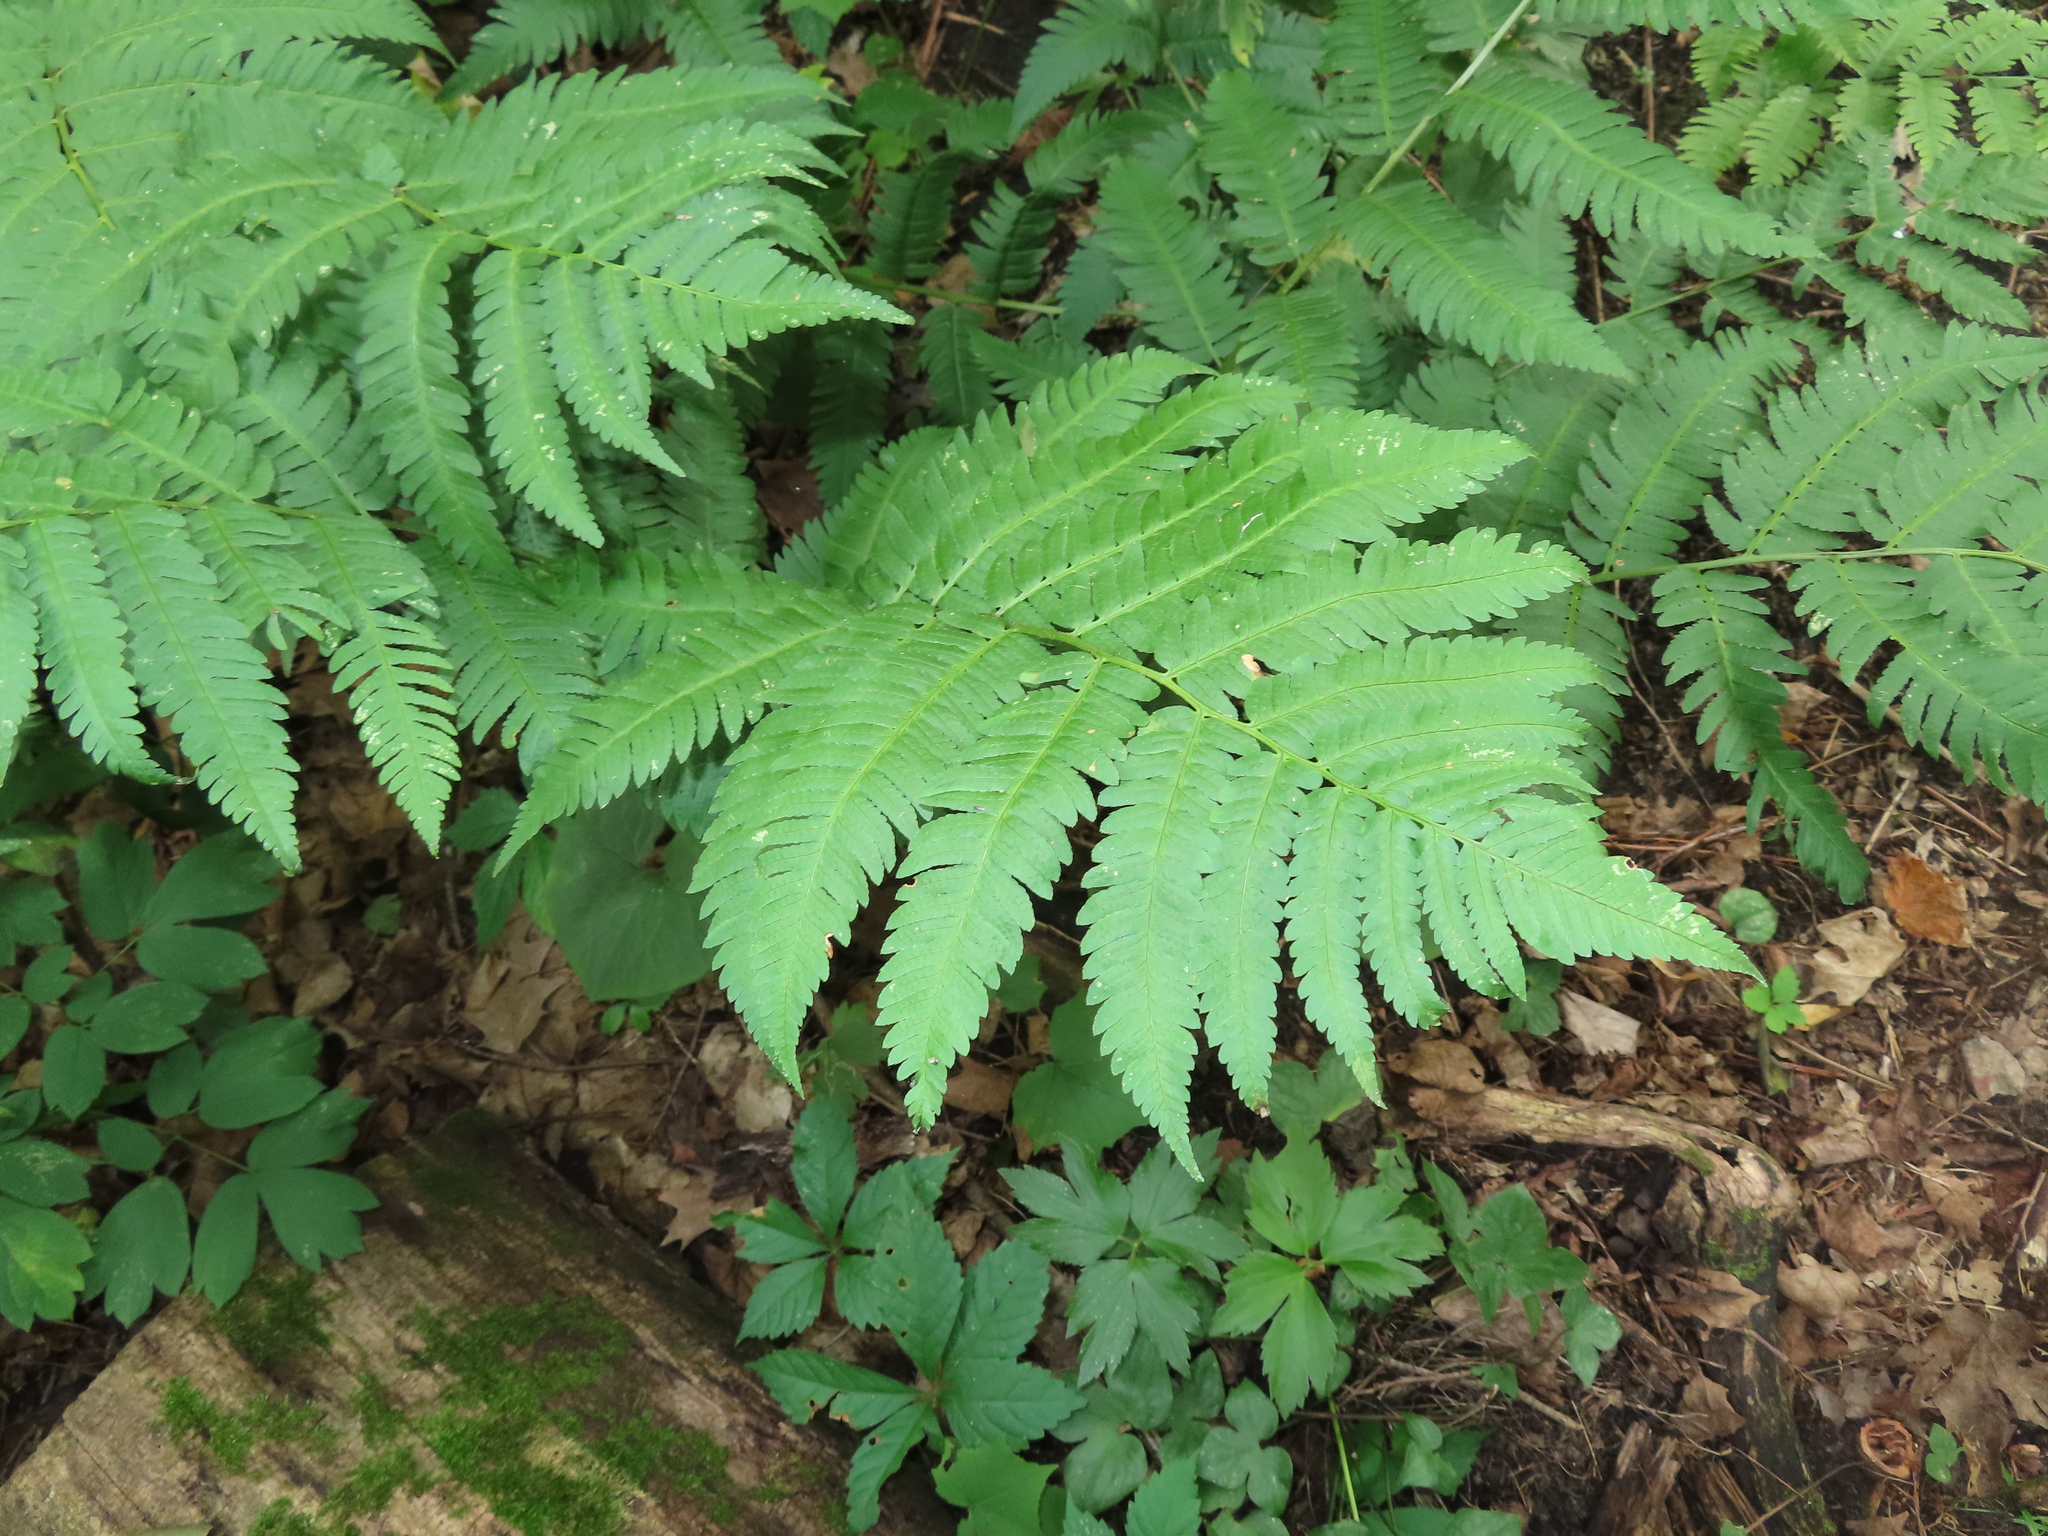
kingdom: Plantae
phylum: Tracheophyta
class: Polypodiopsida
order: Polypodiales
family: Dryopteridaceae
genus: Dryopteris
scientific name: Dryopteris goldieana
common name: Goldie's fern
